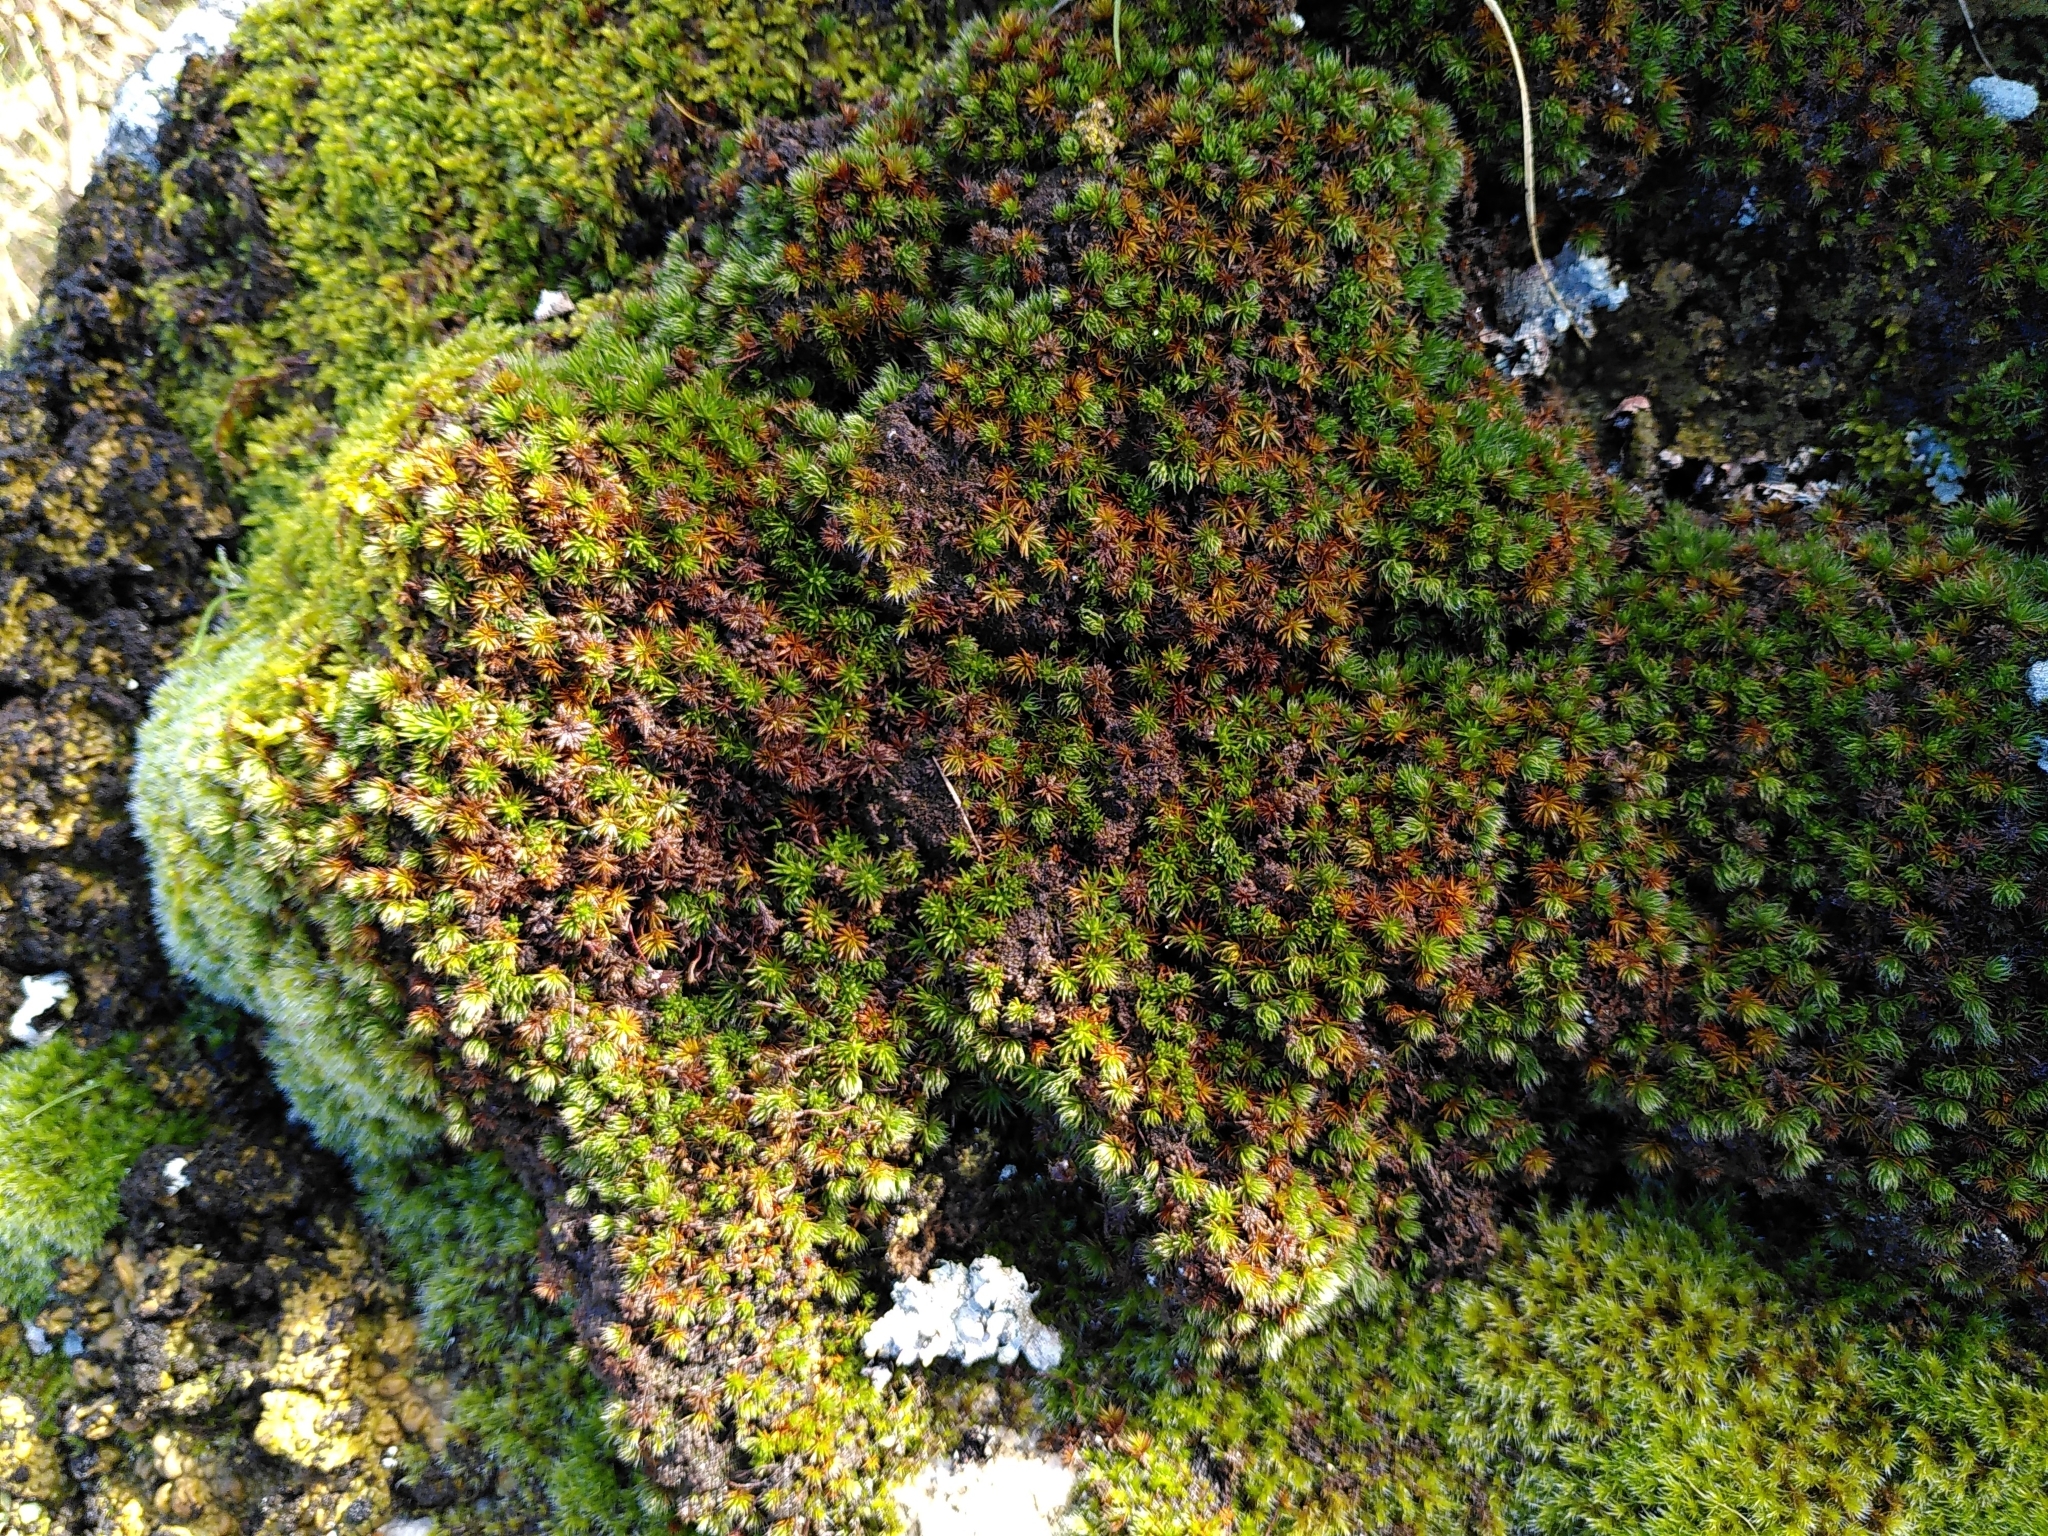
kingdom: Plantae
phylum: Bryophyta
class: Polytrichopsida
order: Polytrichales
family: Polytrichaceae
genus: Polytrichum
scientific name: Polytrichum juniperinum
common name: Juniper haircap moss
